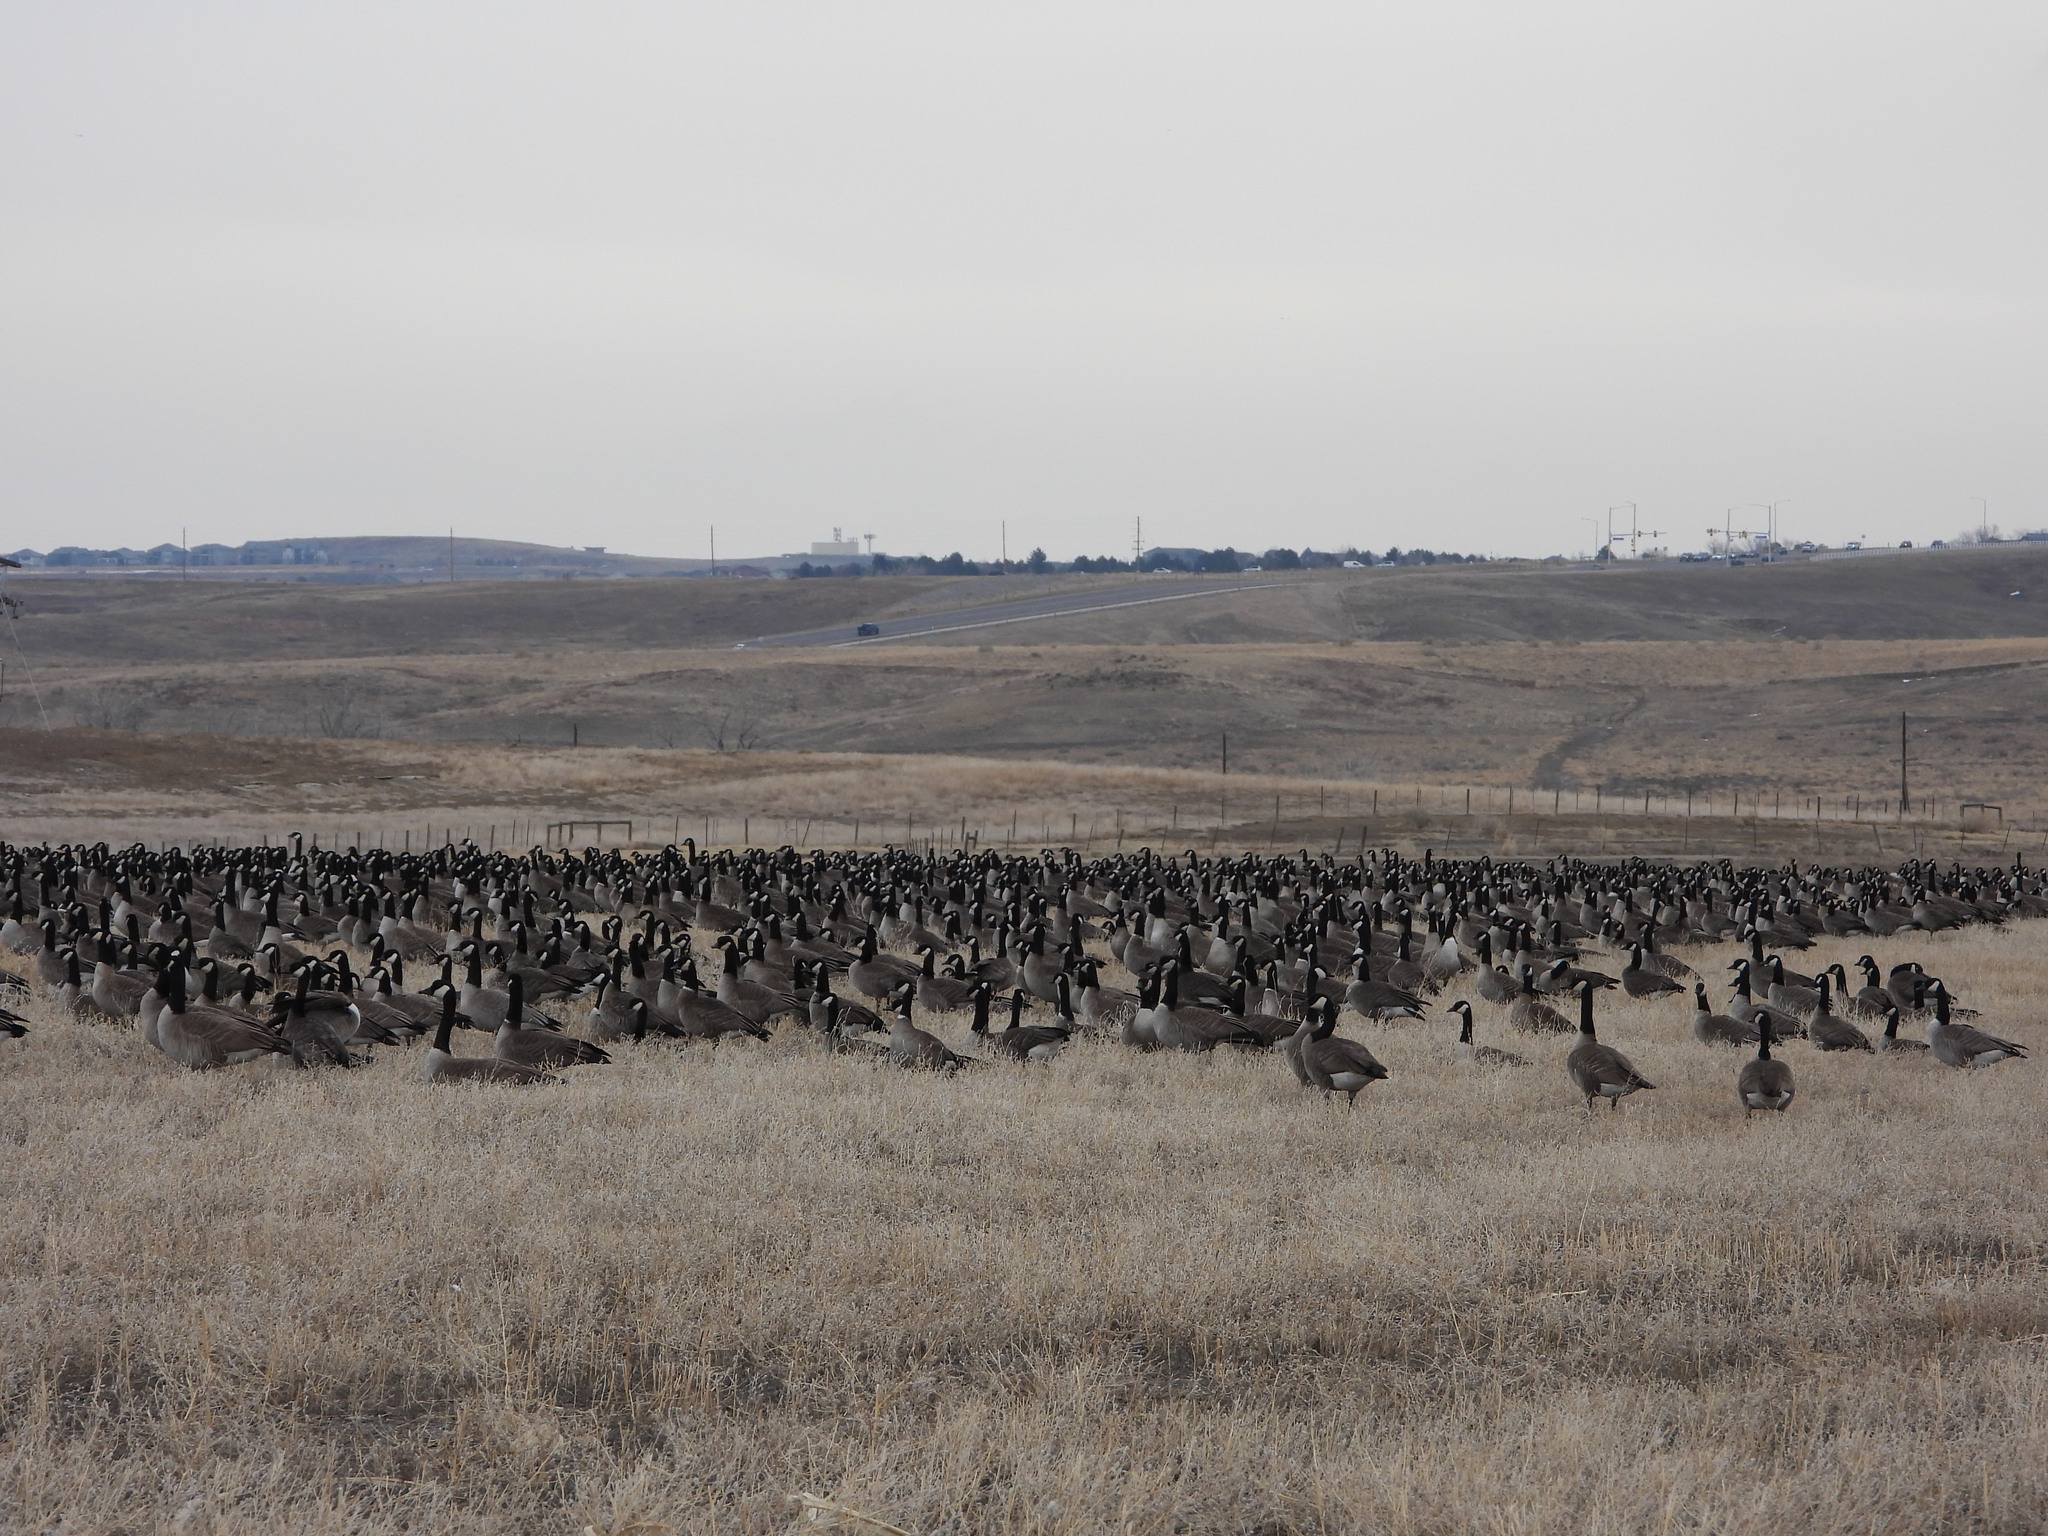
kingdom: Animalia
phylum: Chordata
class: Aves
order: Anseriformes
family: Anatidae
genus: Branta
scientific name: Branta hutchinsii
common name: Cackling goose
